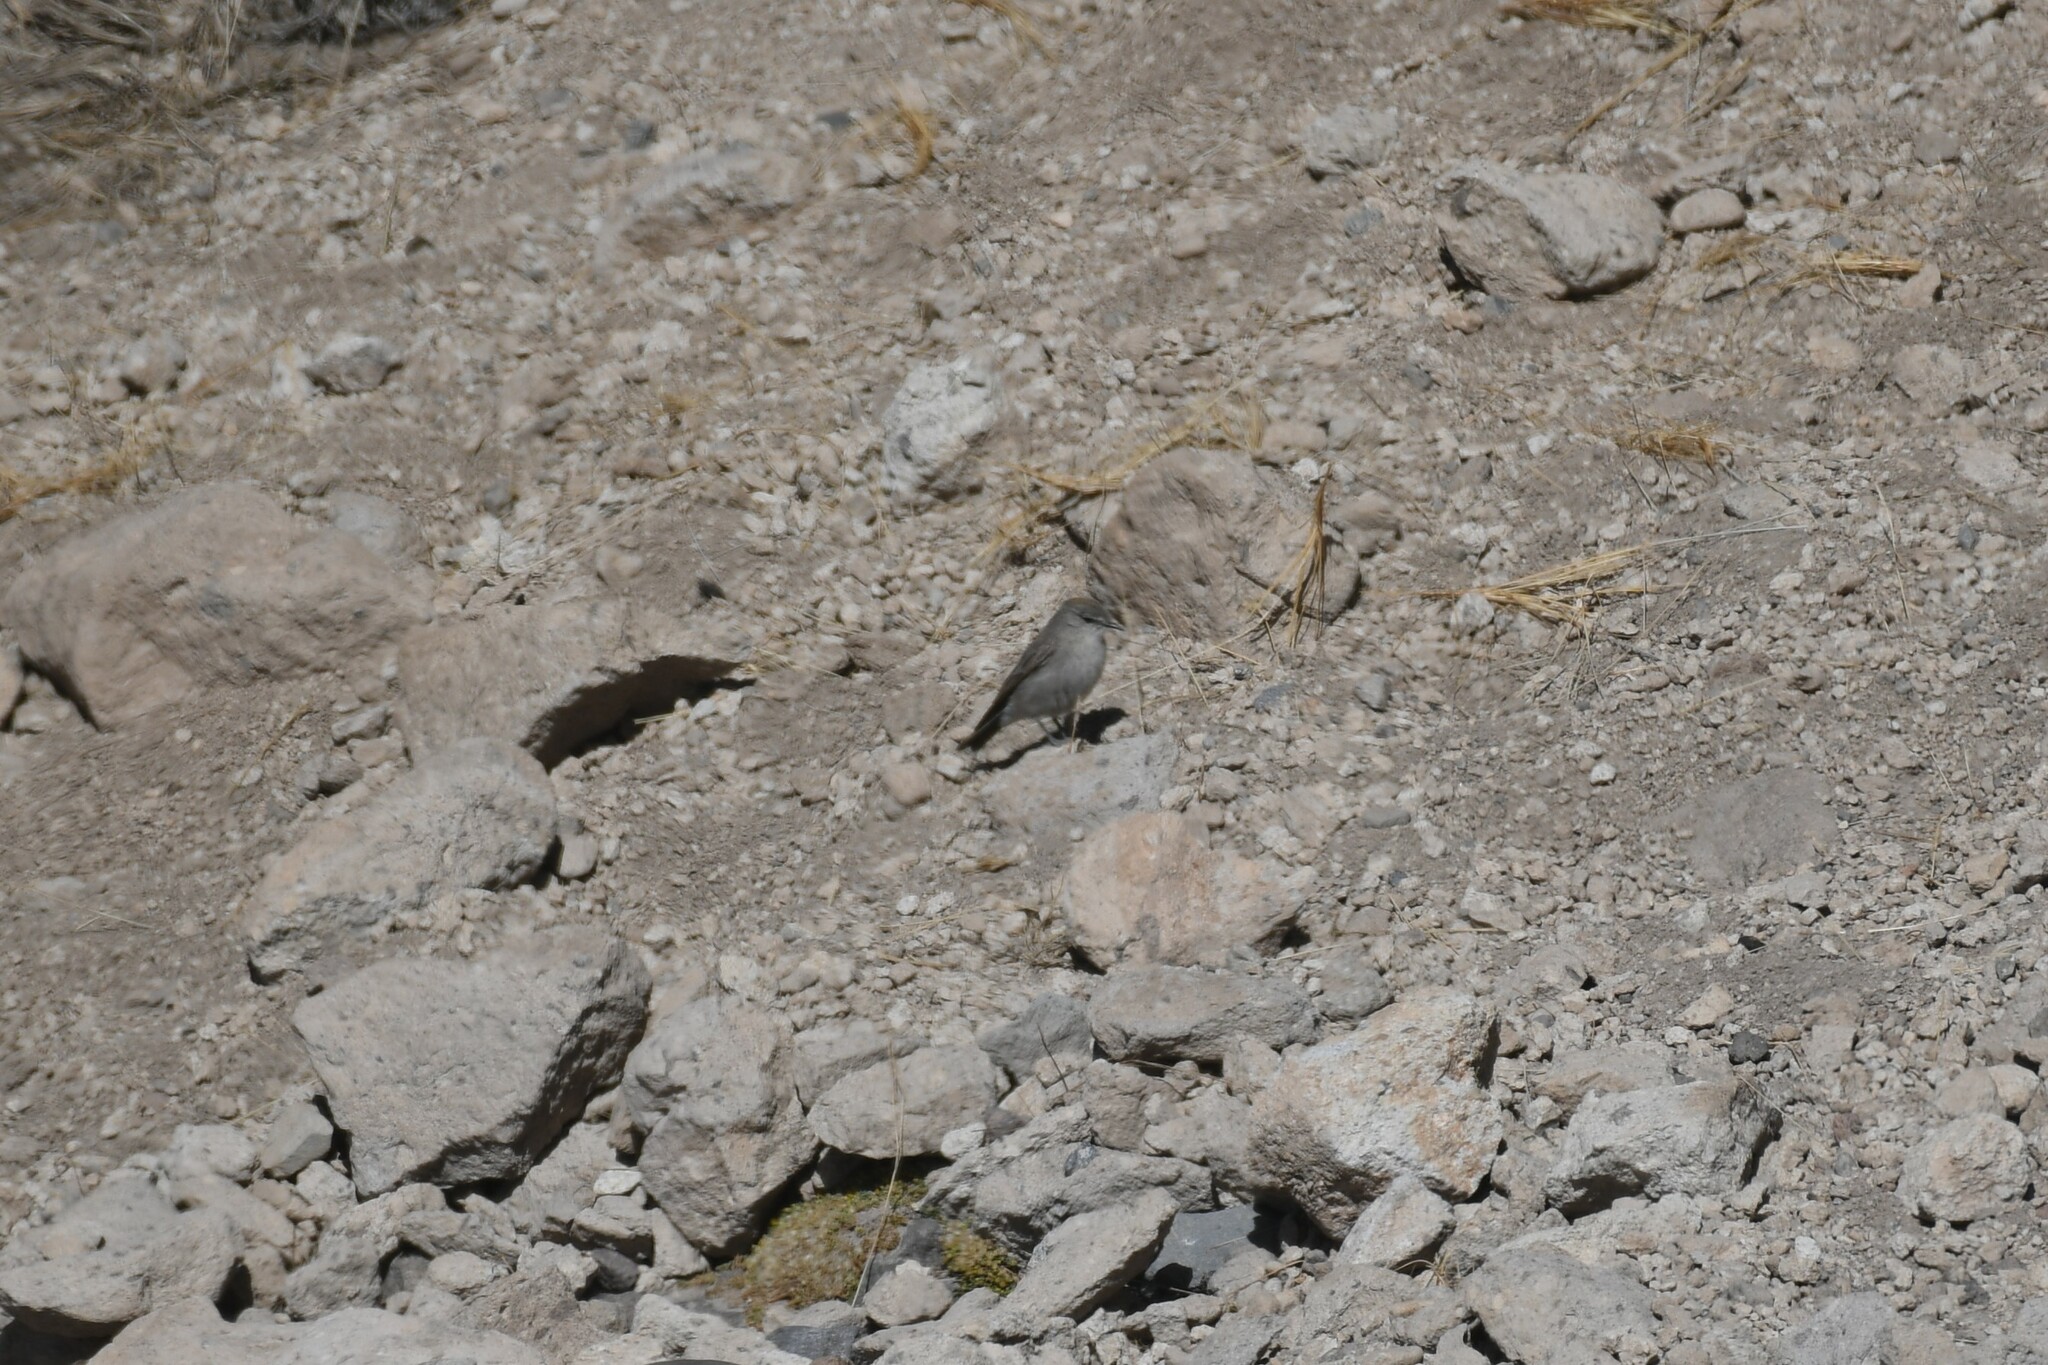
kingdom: Animalia
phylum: Chordata
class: Aves
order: Passeriformes
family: Tyrannidae
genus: Muscisaxicola
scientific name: Muscisaxicola juninensis
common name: Puna ground tyrant
